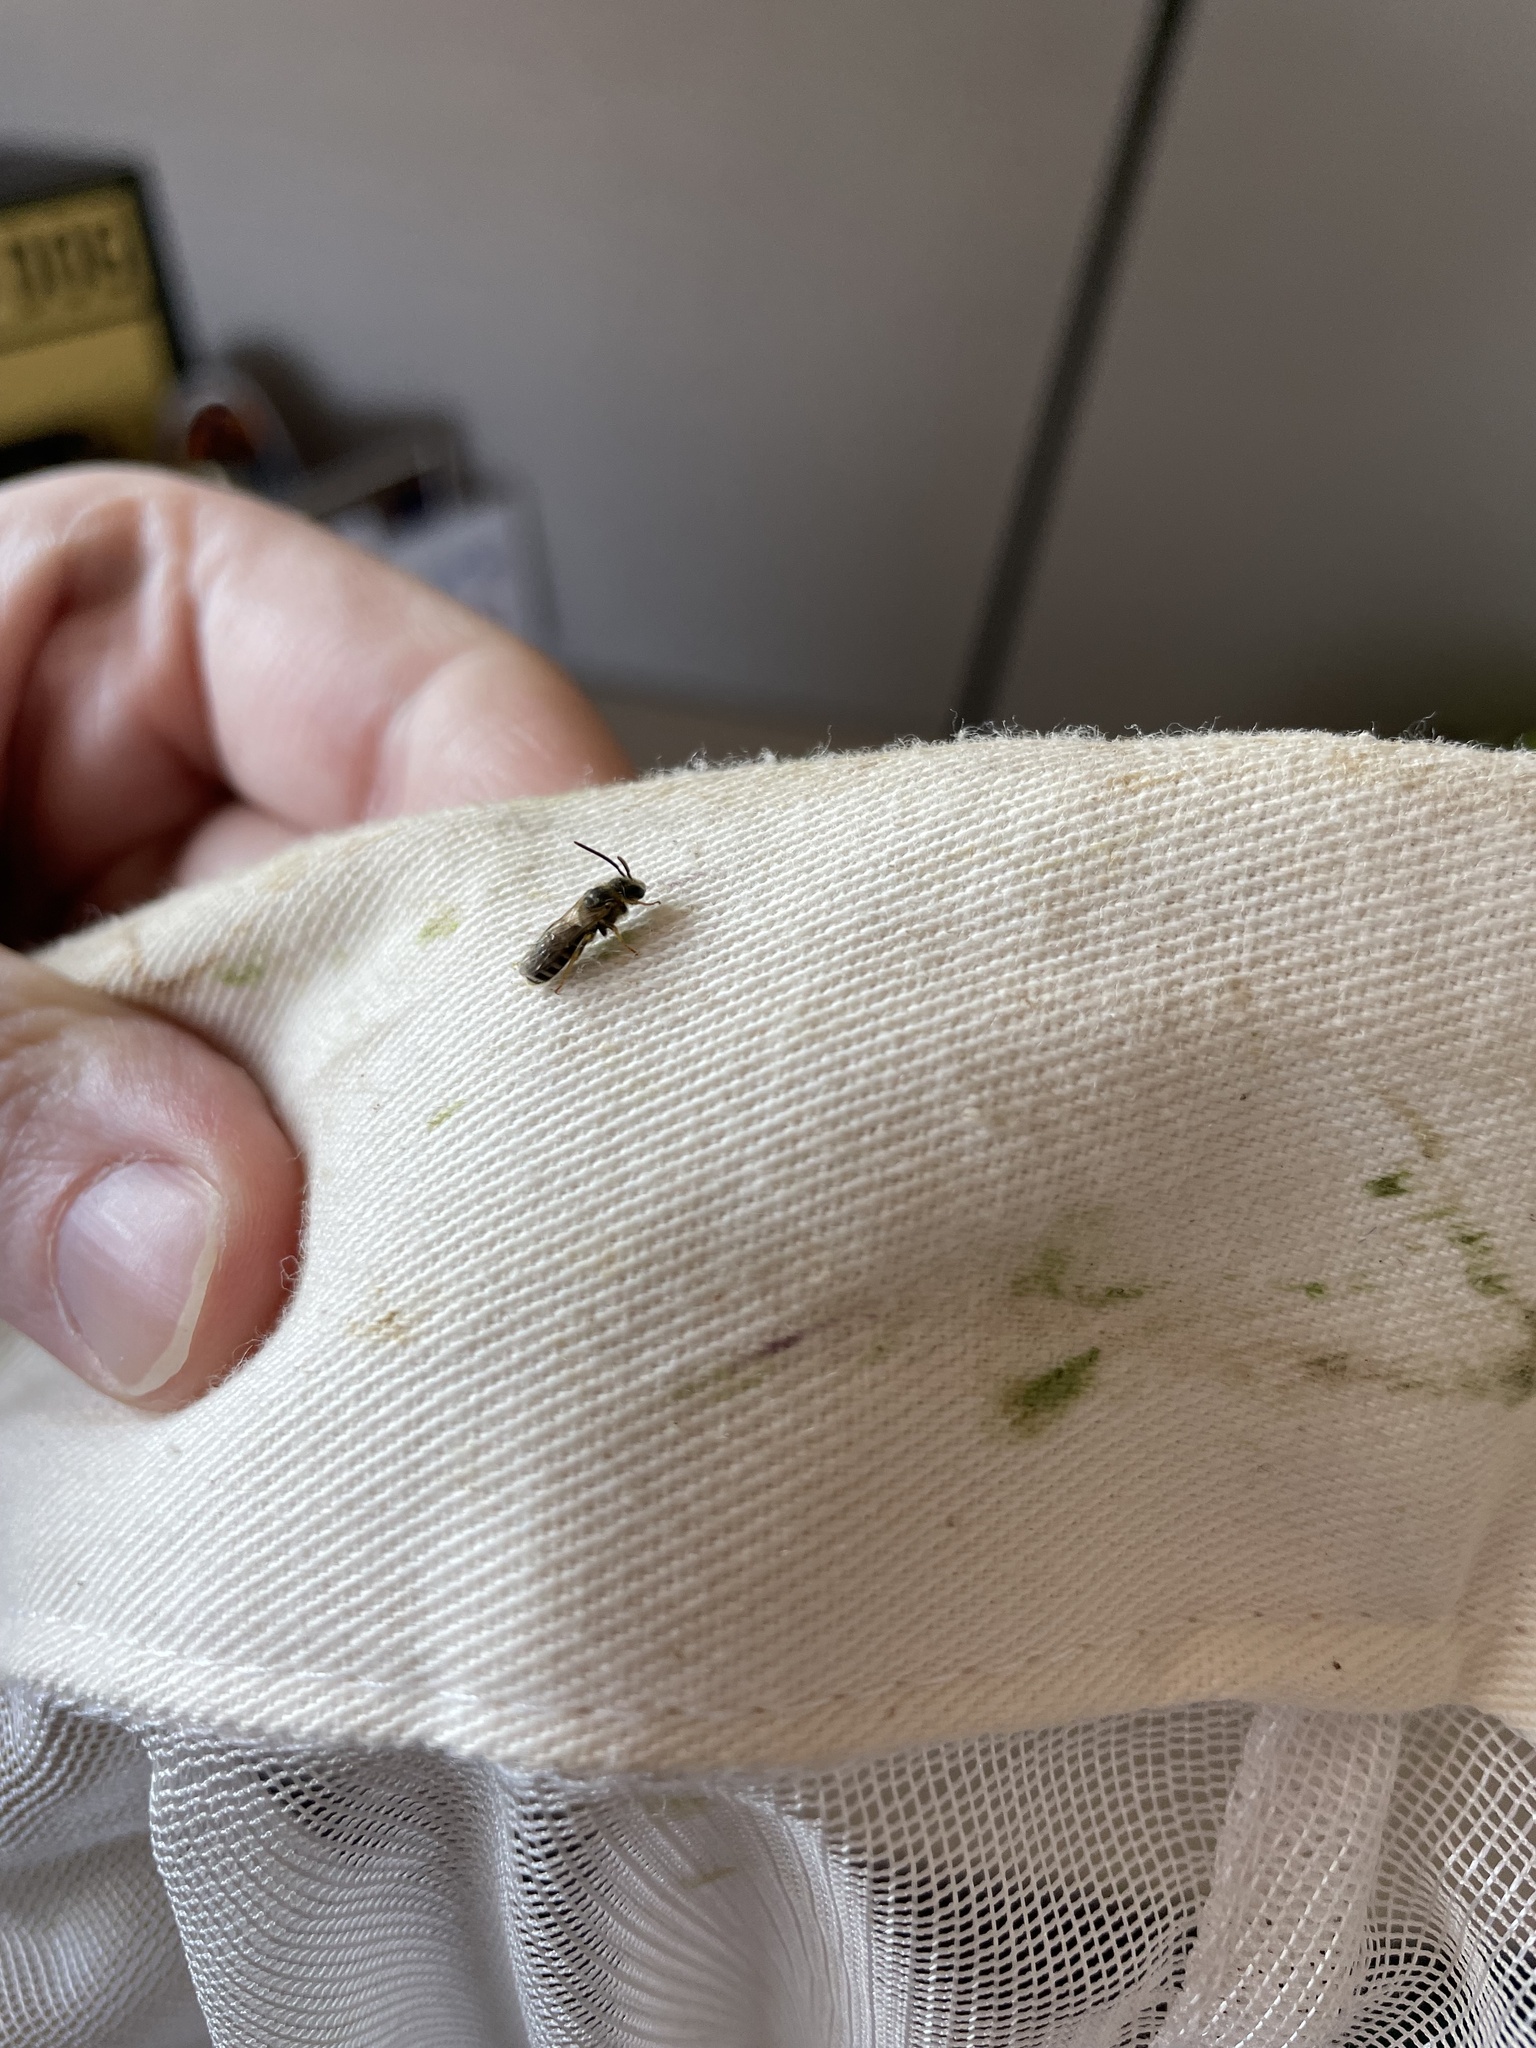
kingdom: Animalia
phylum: Arthropoda
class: Insecta
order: Hymenoptera
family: Halictidae
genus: Halictus
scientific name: Halictus ligatus
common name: Ligated furrow bee
